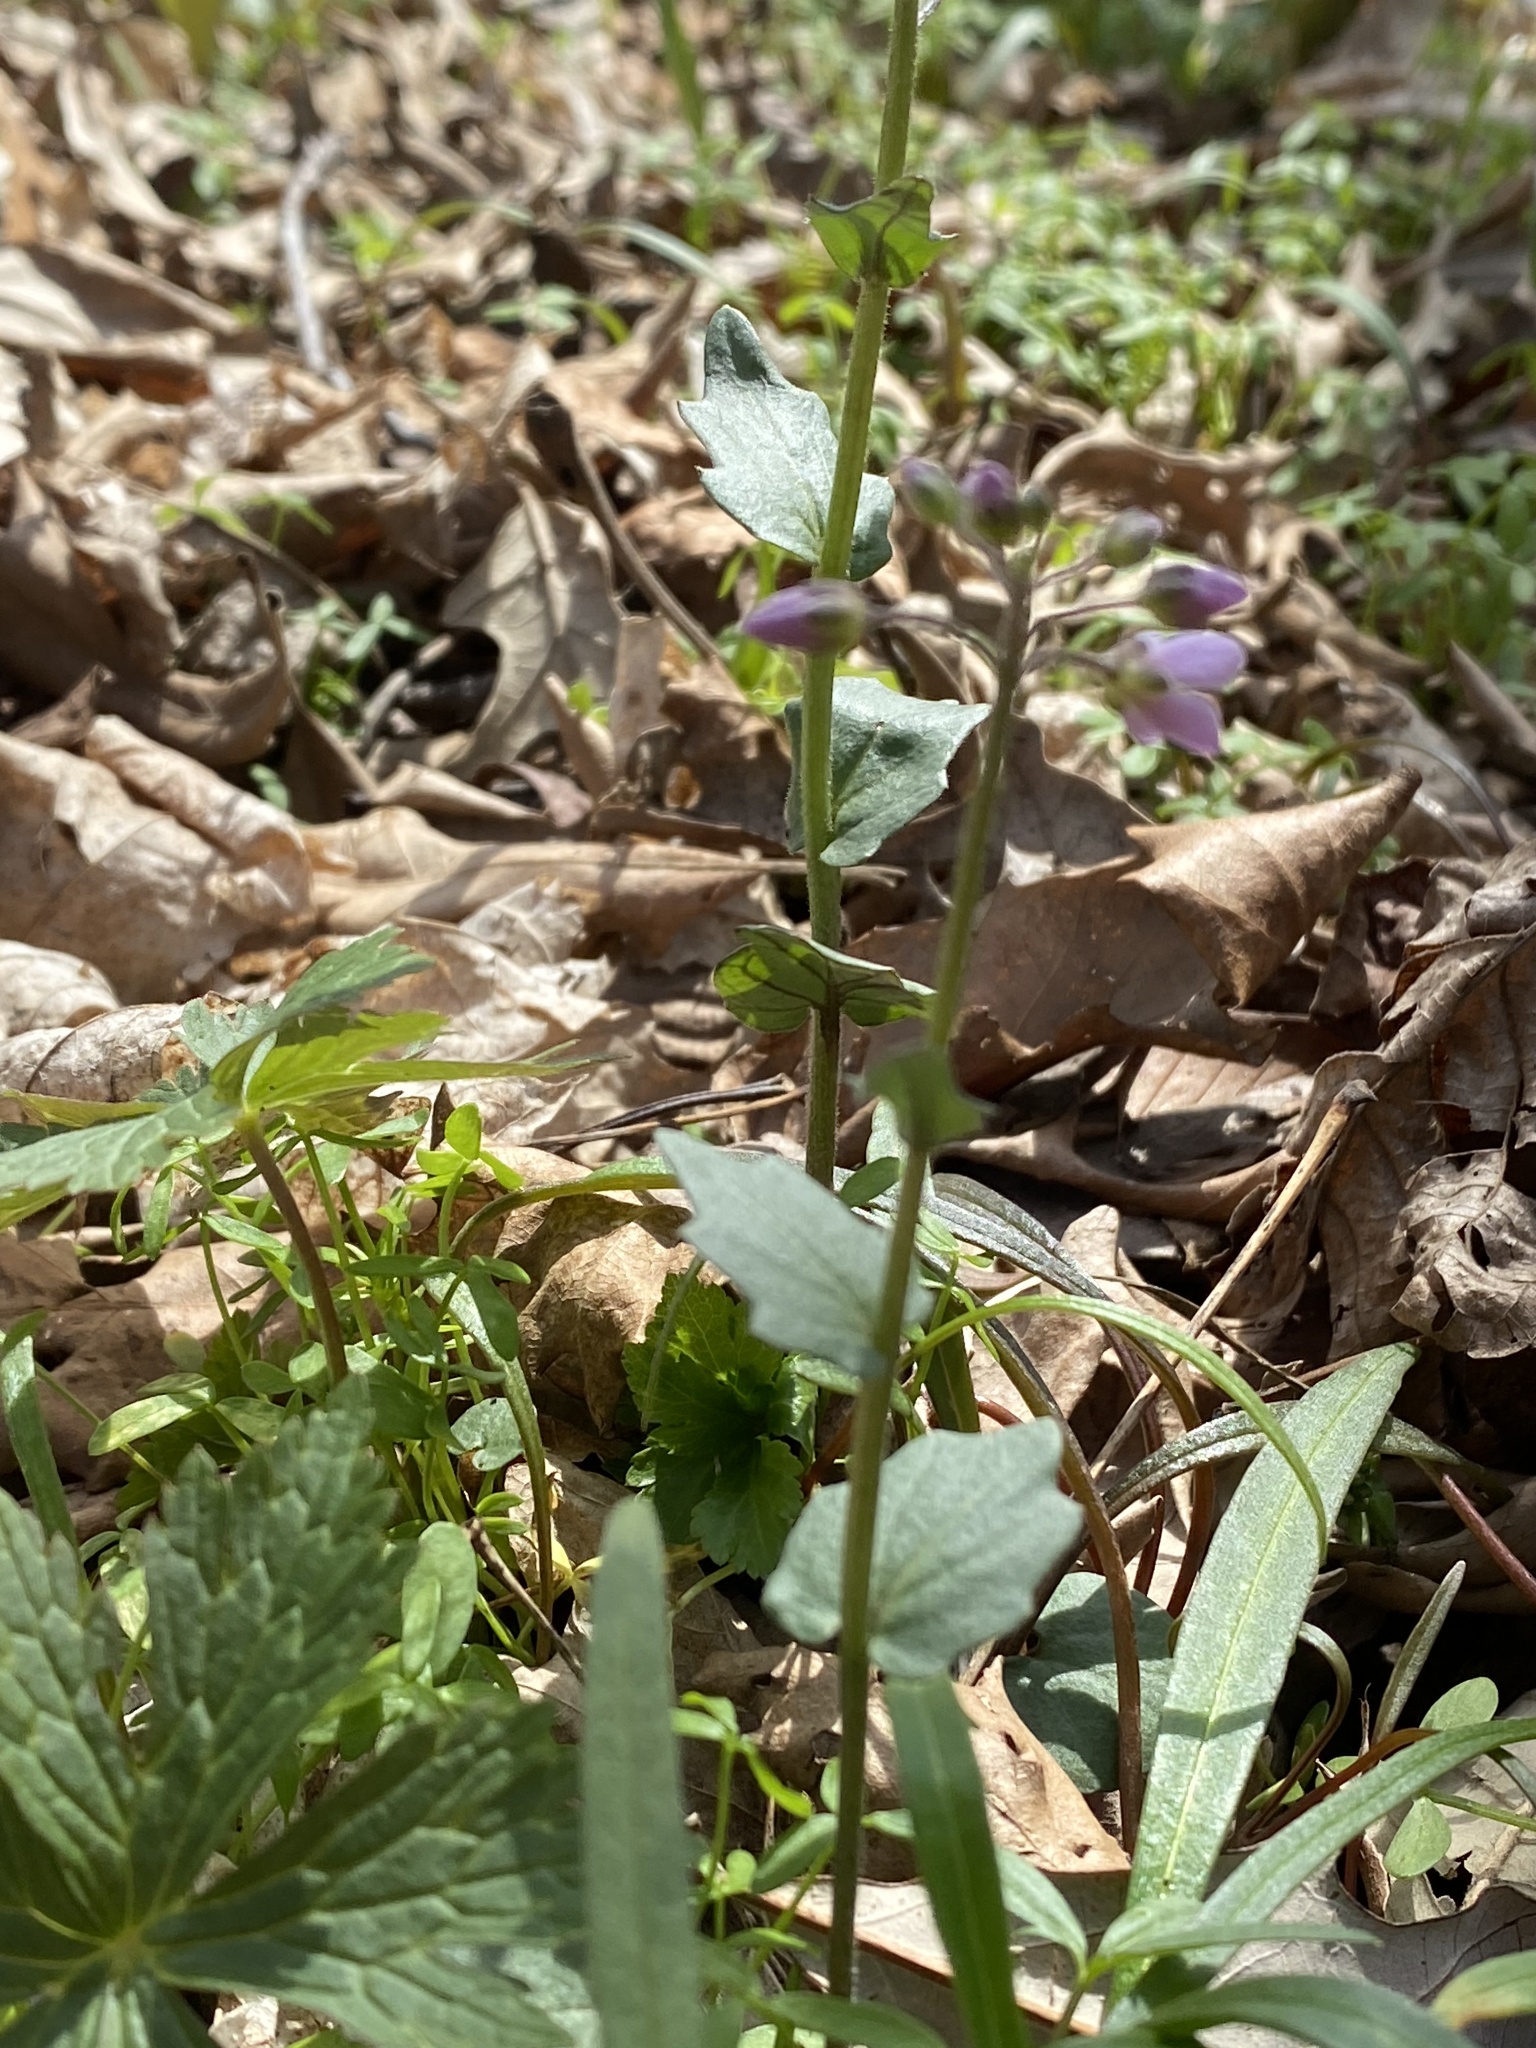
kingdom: Plantae
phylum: Tracheophyta
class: Magnoliopsida
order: Brassicales
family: Brassicaceae
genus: Cardamine
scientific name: Cardamine douglassii
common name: Purple cress
